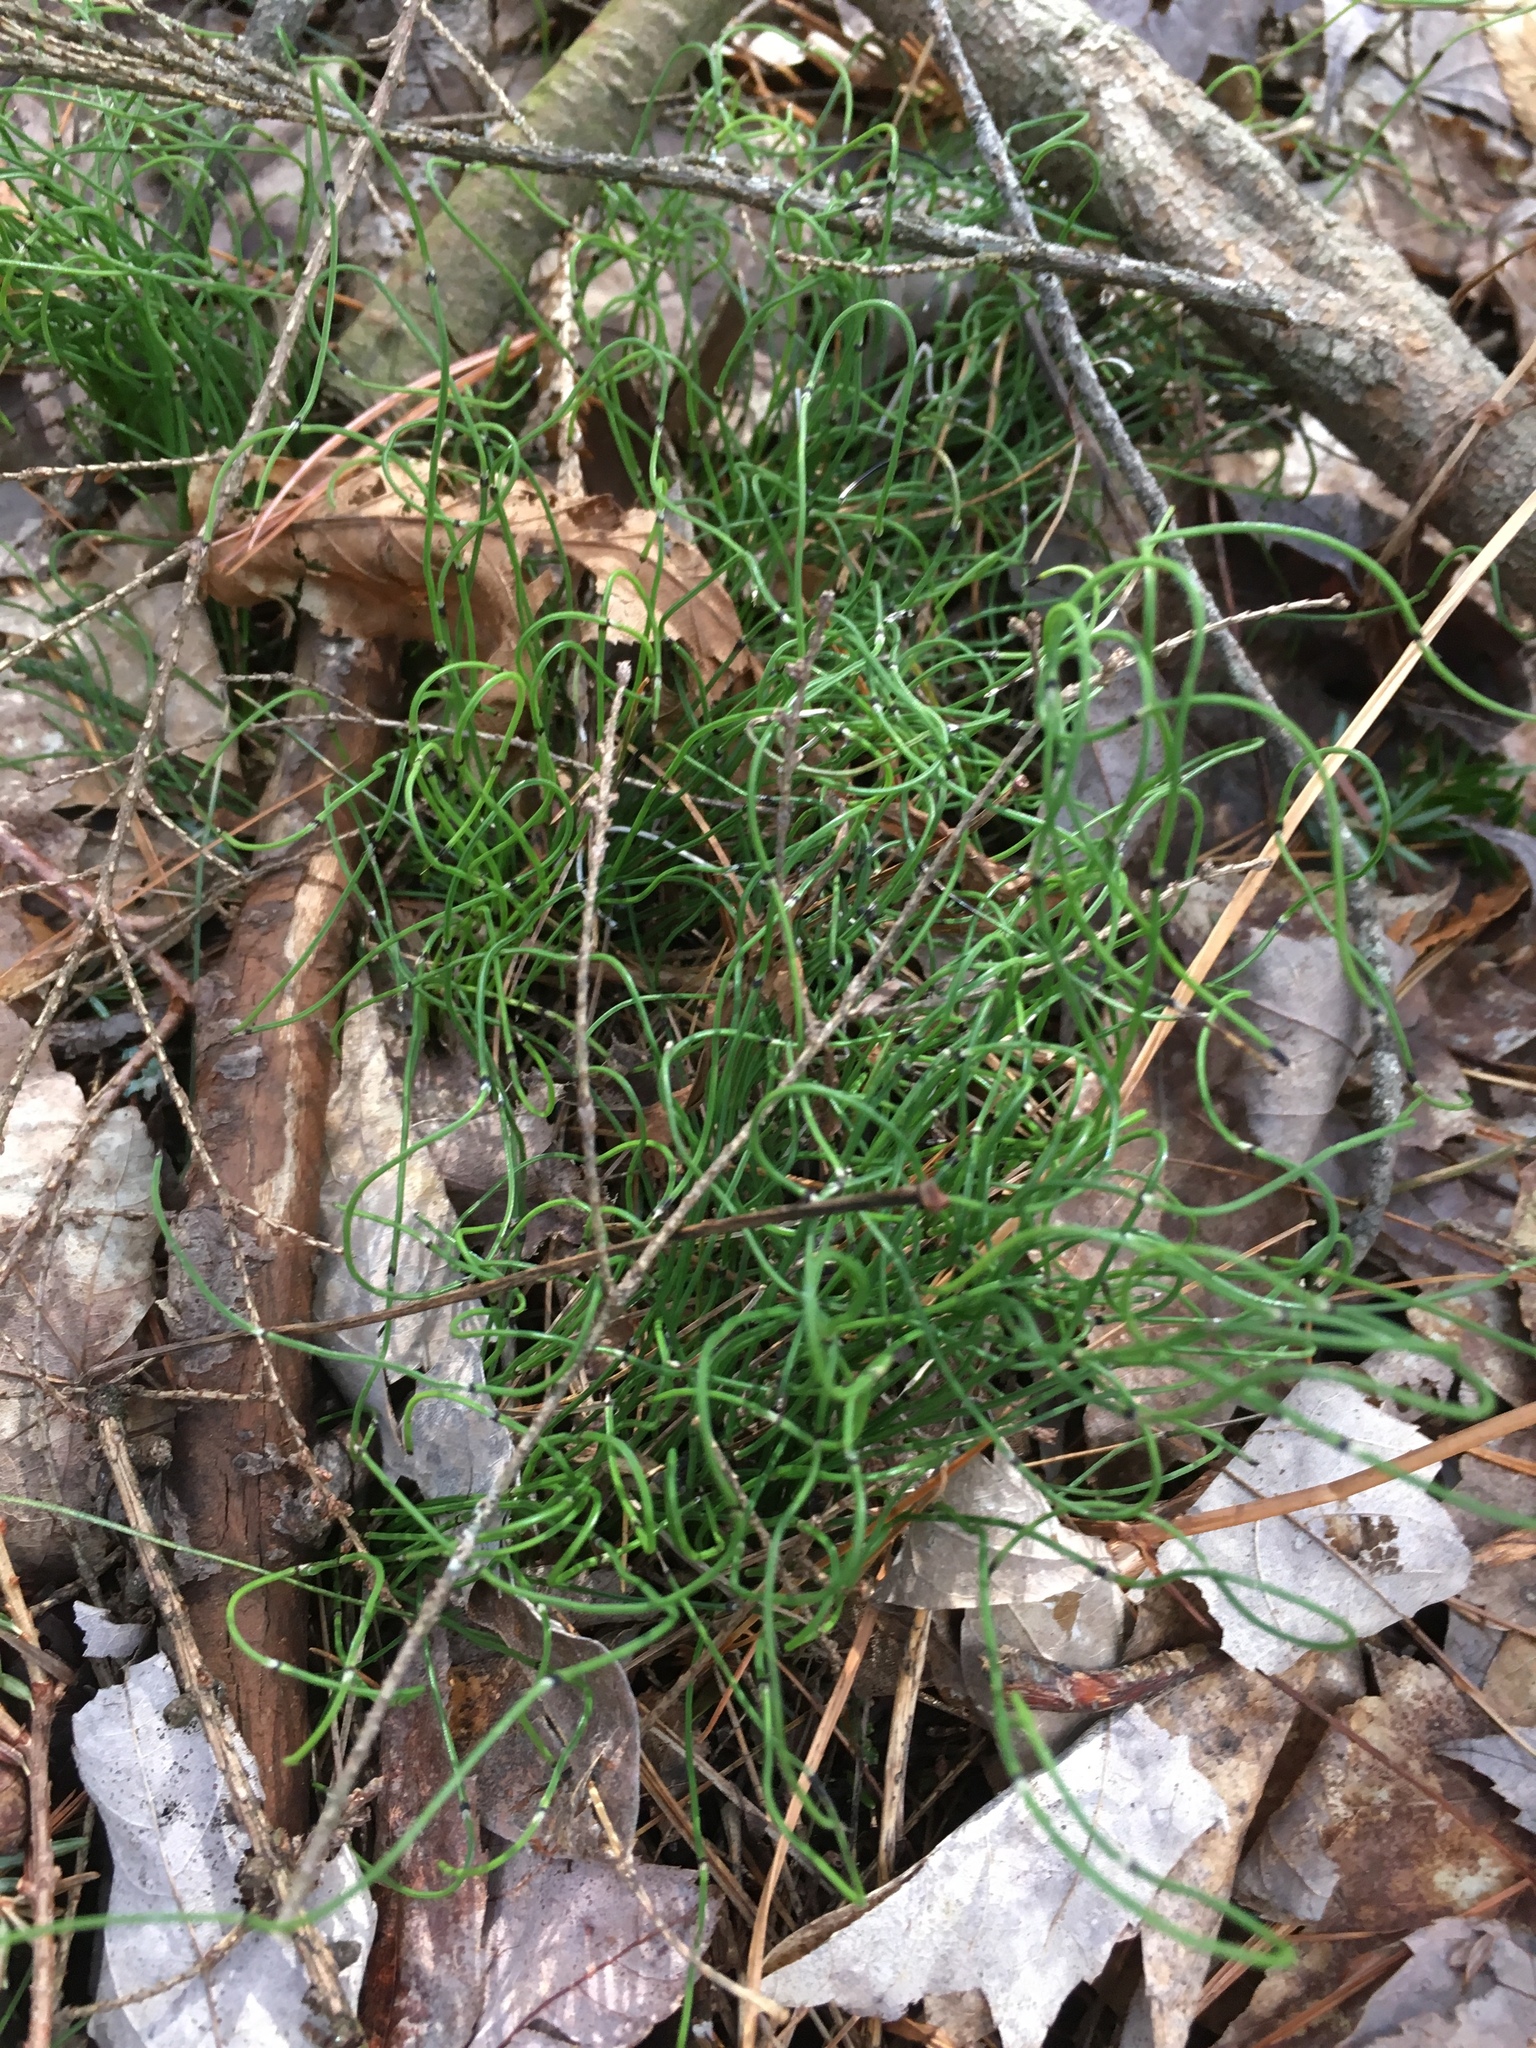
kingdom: Plantae
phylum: Tracheophyta
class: Polypodiopsida
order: Equisetales
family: Equisetaceae
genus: Equisetum
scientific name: Equisetum scirpoides
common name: Delicate horsetail
